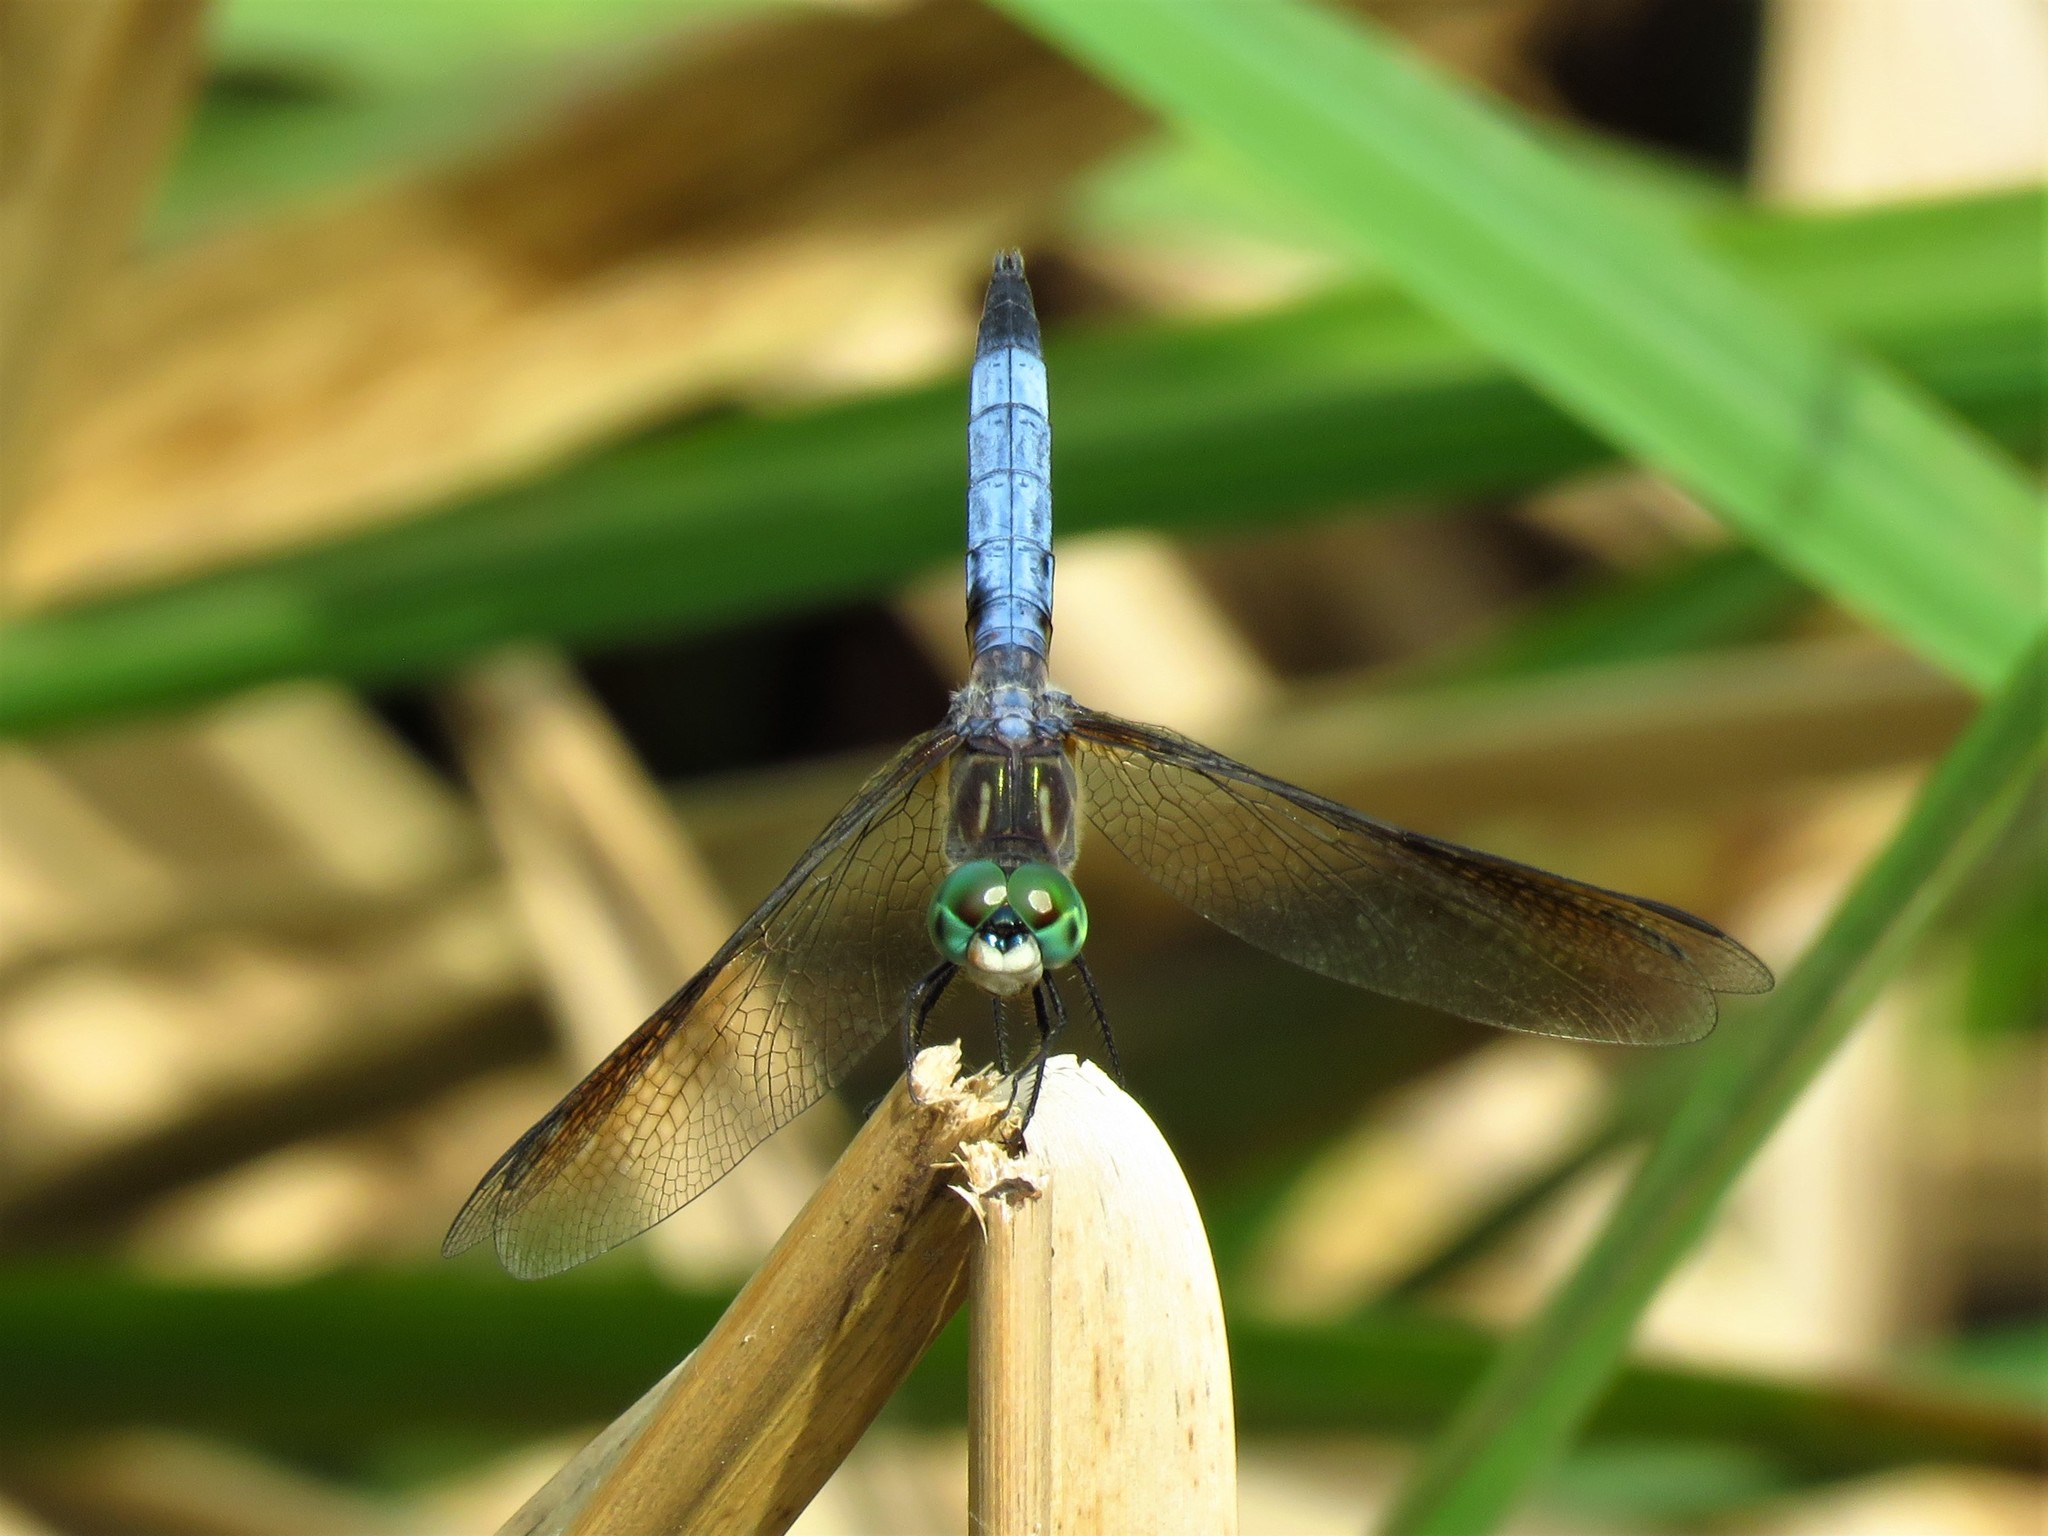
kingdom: Animalia
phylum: Arthropoda
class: Insecta
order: Odonata
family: Libellulidae
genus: Pachydiplax
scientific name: Pachydiplax longipennis
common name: Blue dasher
